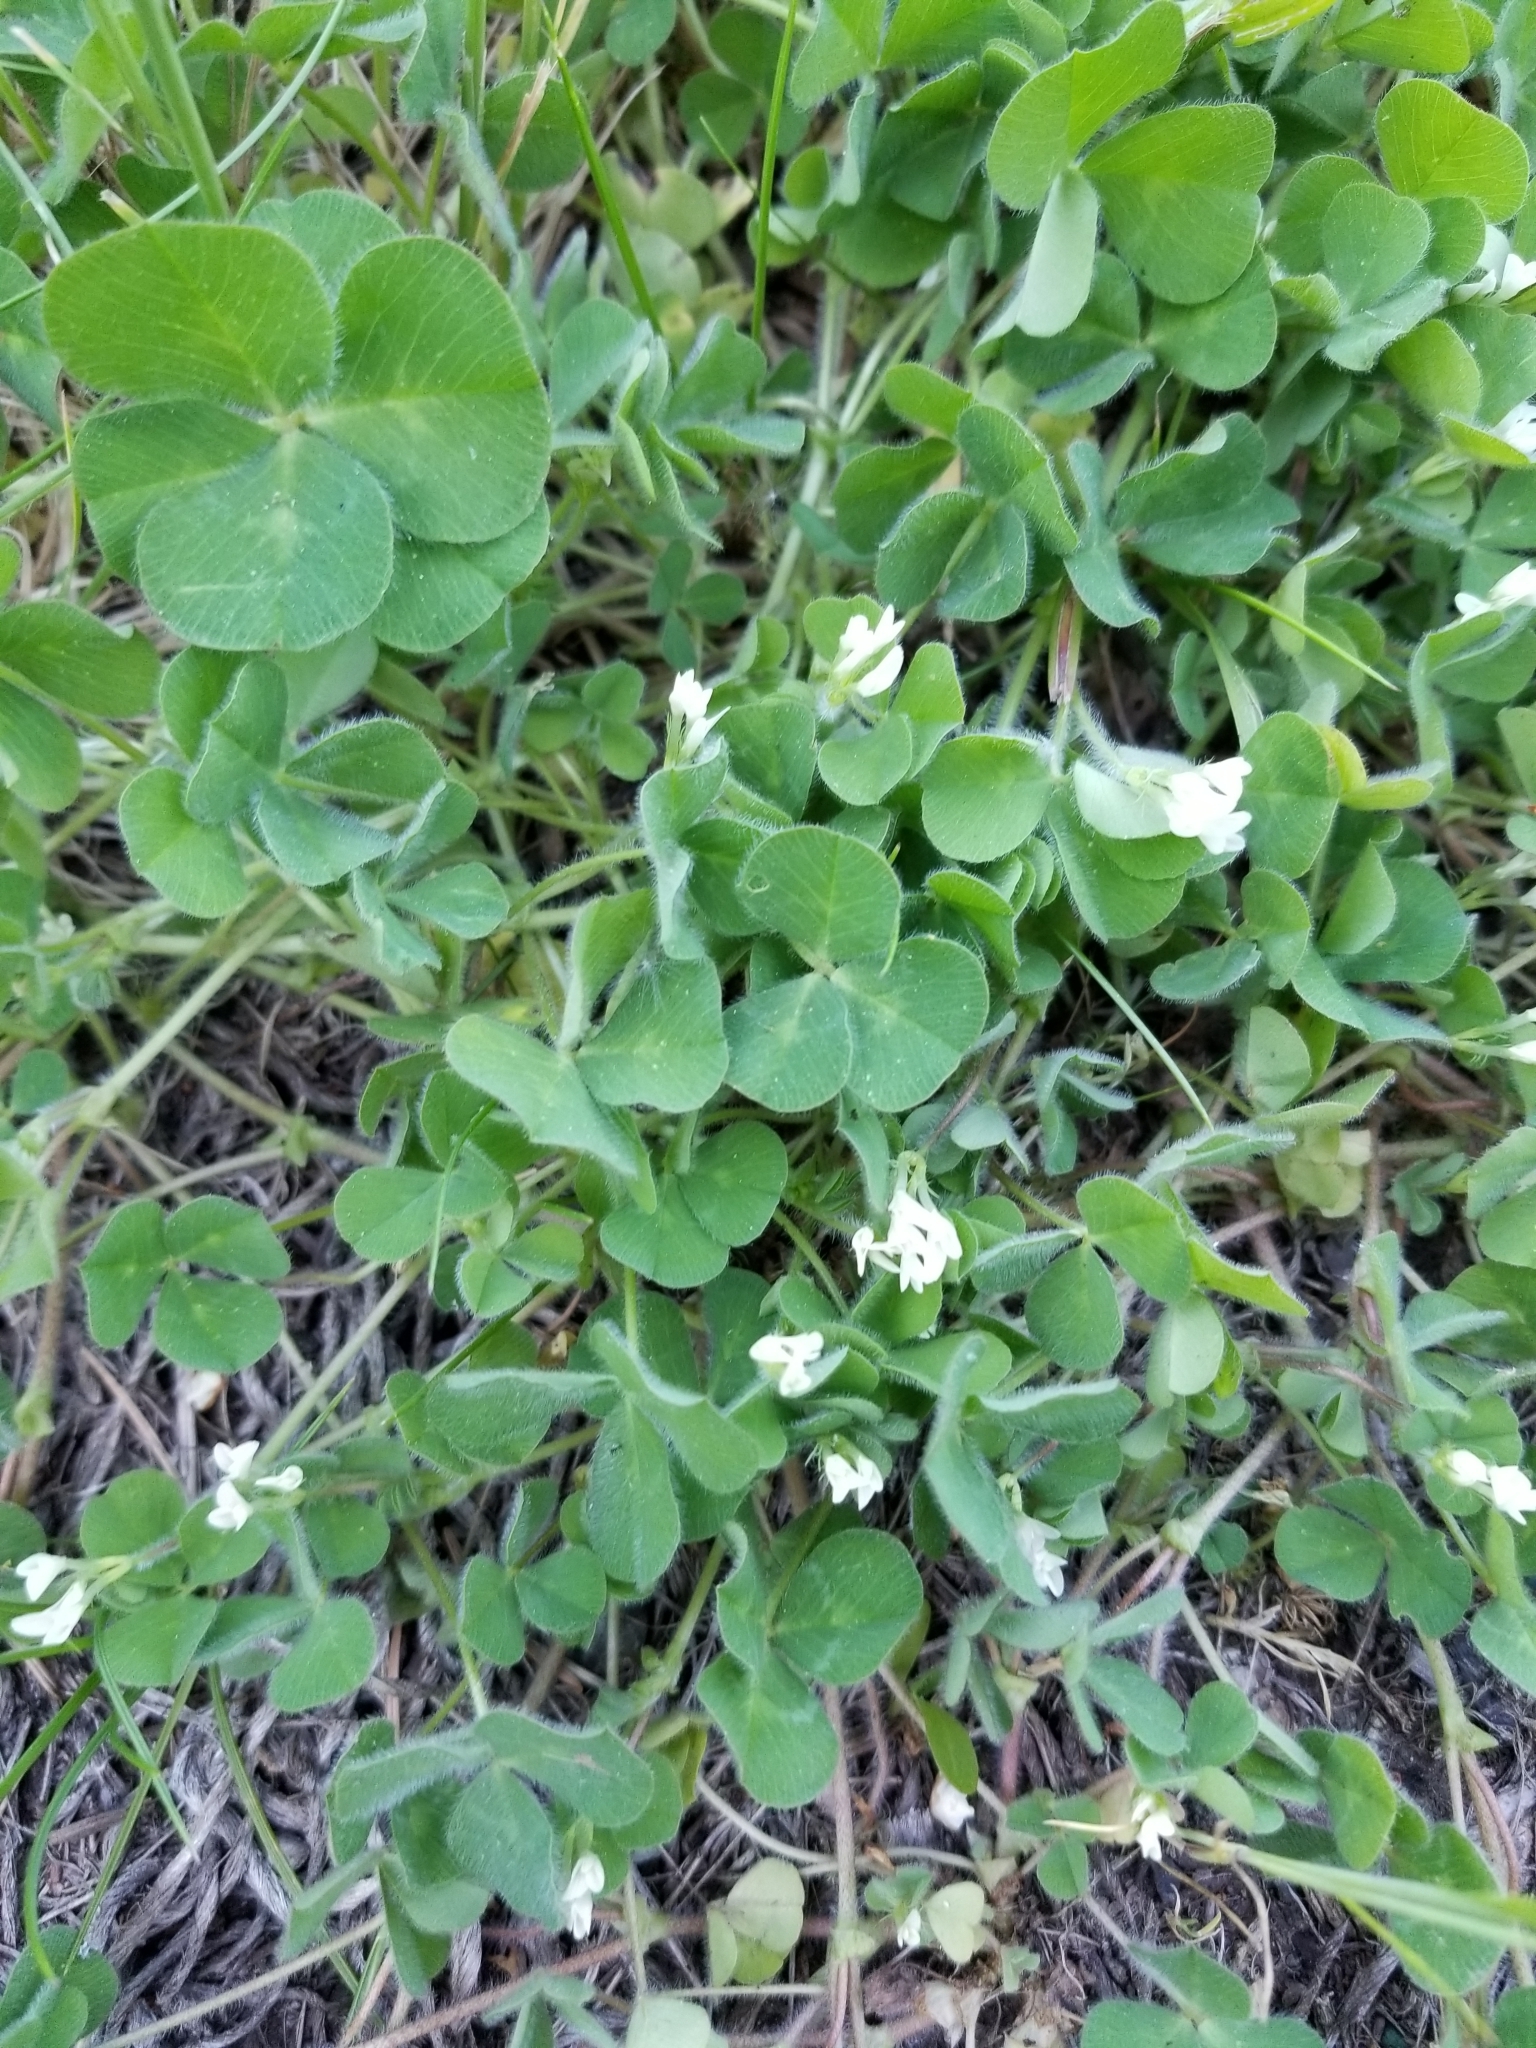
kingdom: Plantae
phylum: Tracheophyta
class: Magnoliopsida
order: Fabales
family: Fabaceae
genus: Trifolium
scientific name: Trifolium subterraneum
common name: Subterranean clover
